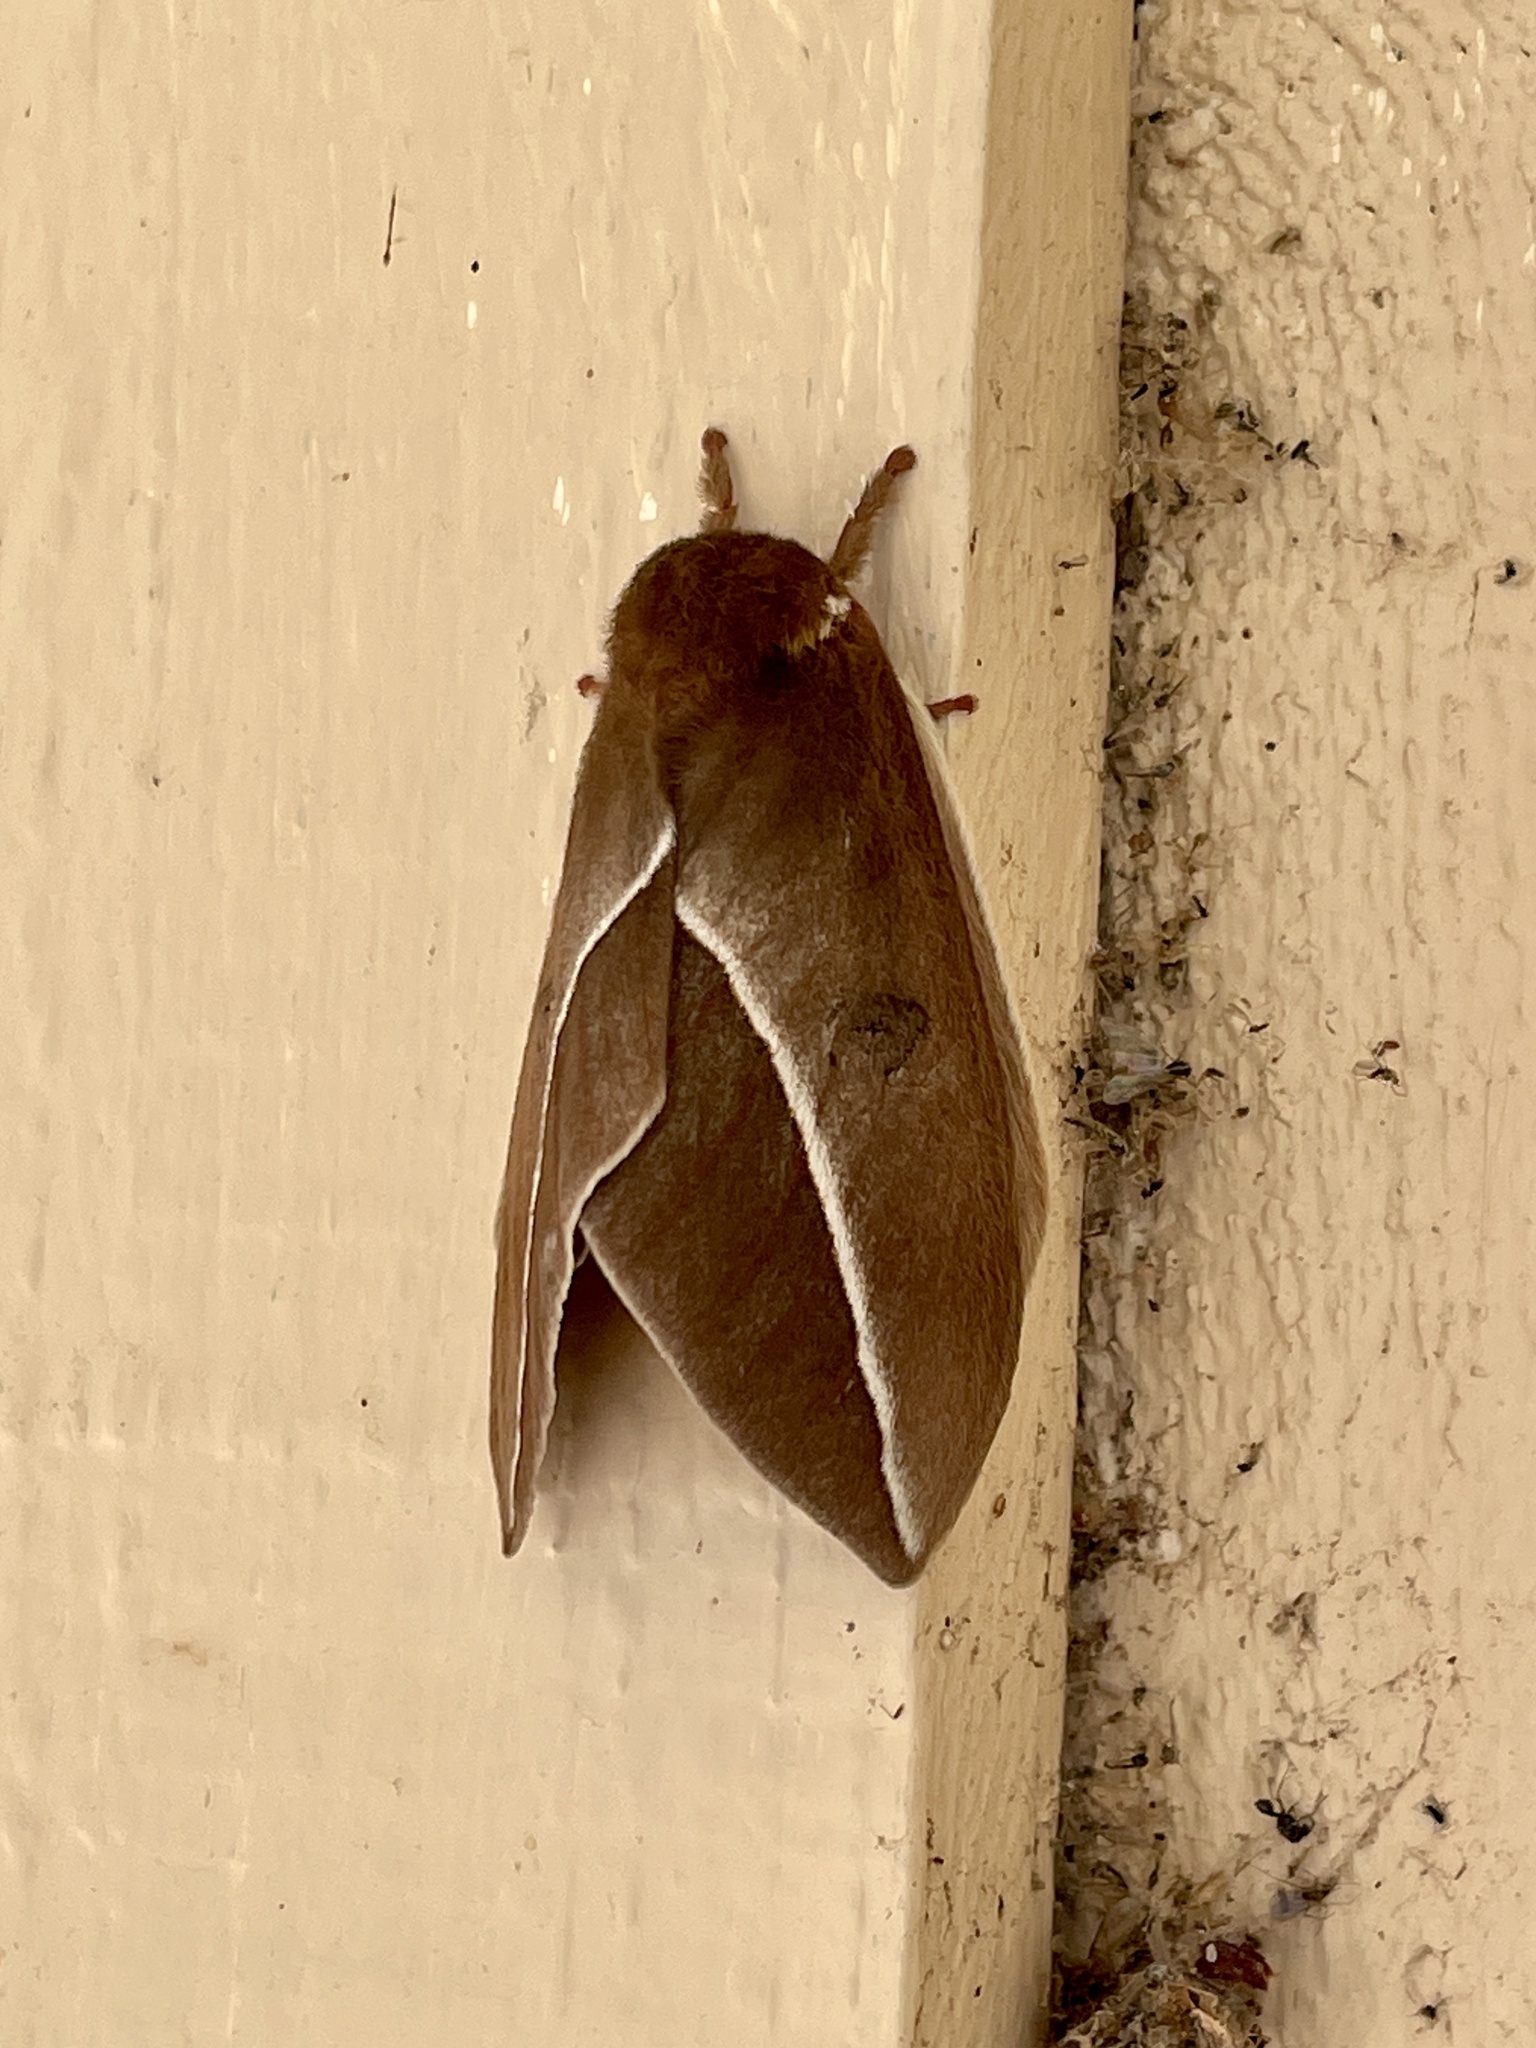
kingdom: Animalia
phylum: Arthropoda
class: Insecta
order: Lepidoptera
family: Saturniidae
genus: Automeris
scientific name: Automeris zephyria
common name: Zephyr eyed silkmoth
